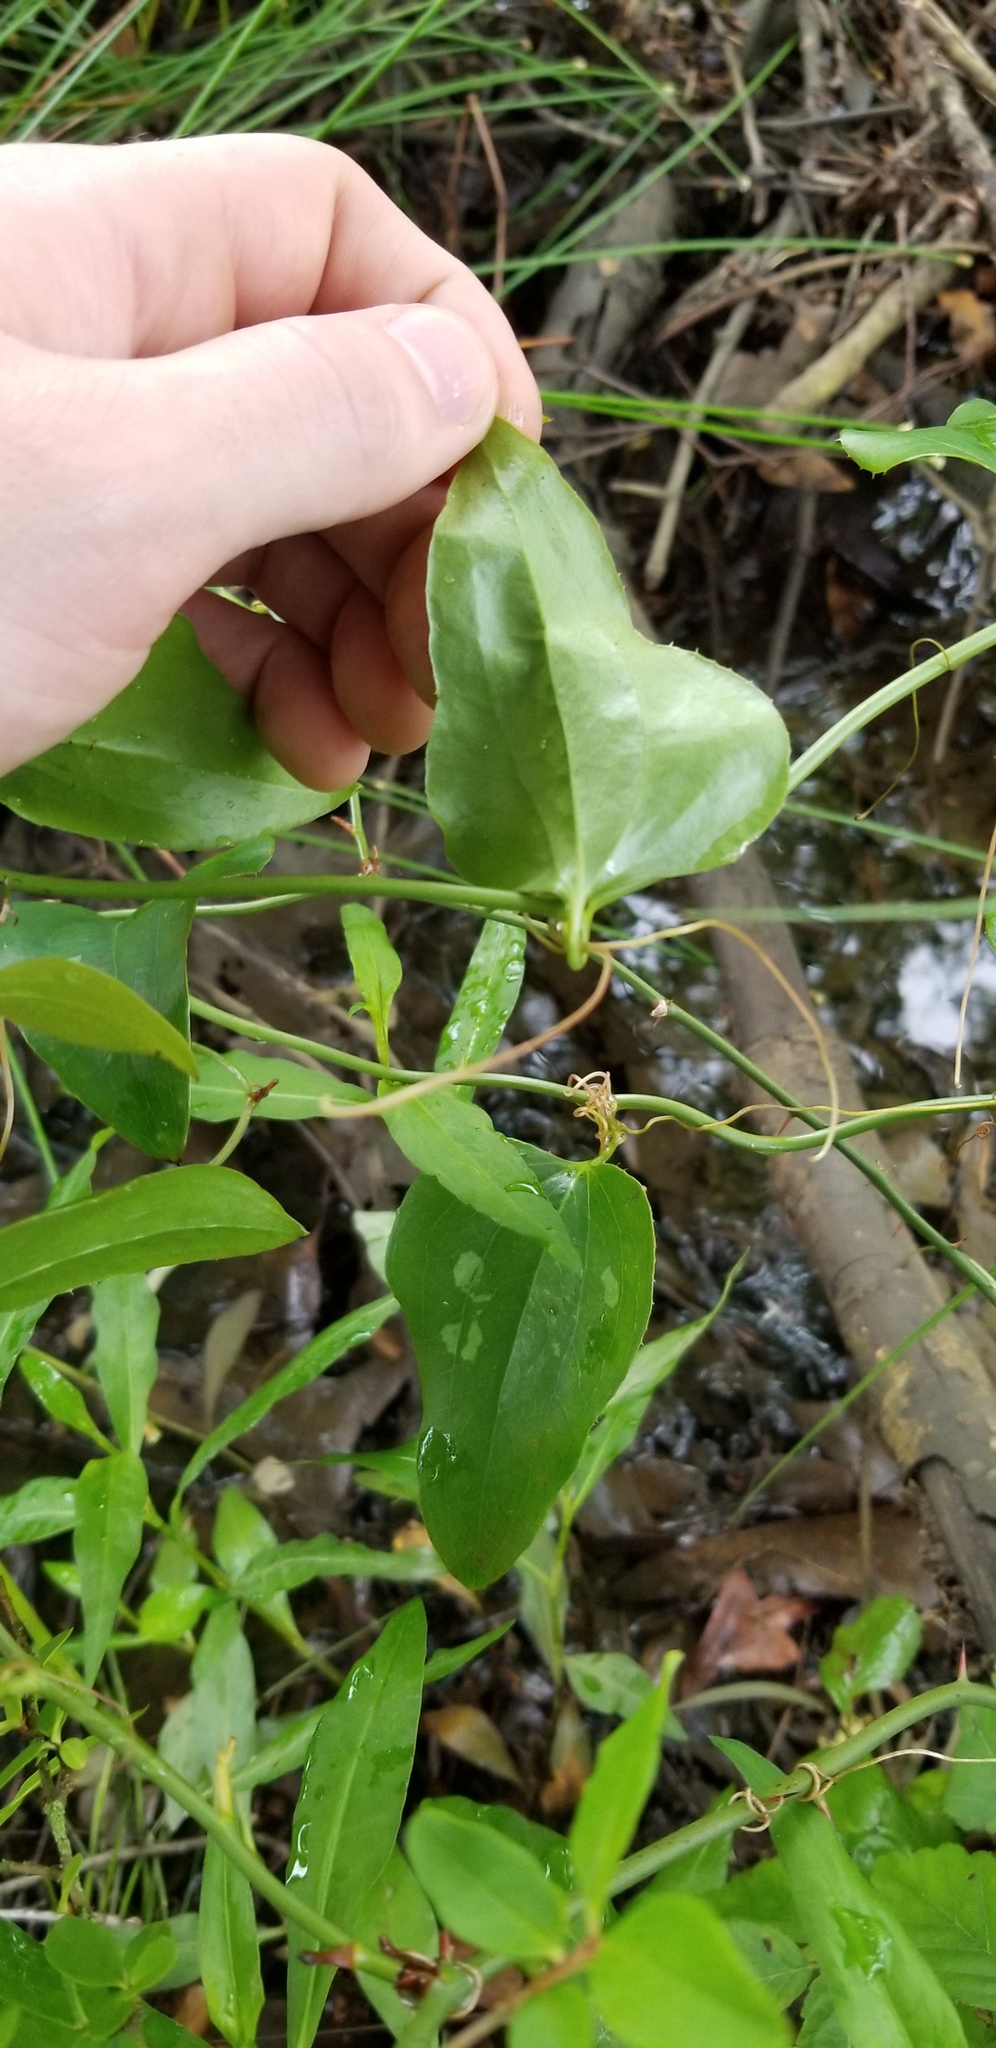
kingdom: Plantae
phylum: Tracheophyta
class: Liliopsida
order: Liliales
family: Smilacaceae
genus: Smilax
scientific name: Smilax bona-nox
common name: Catbrier
